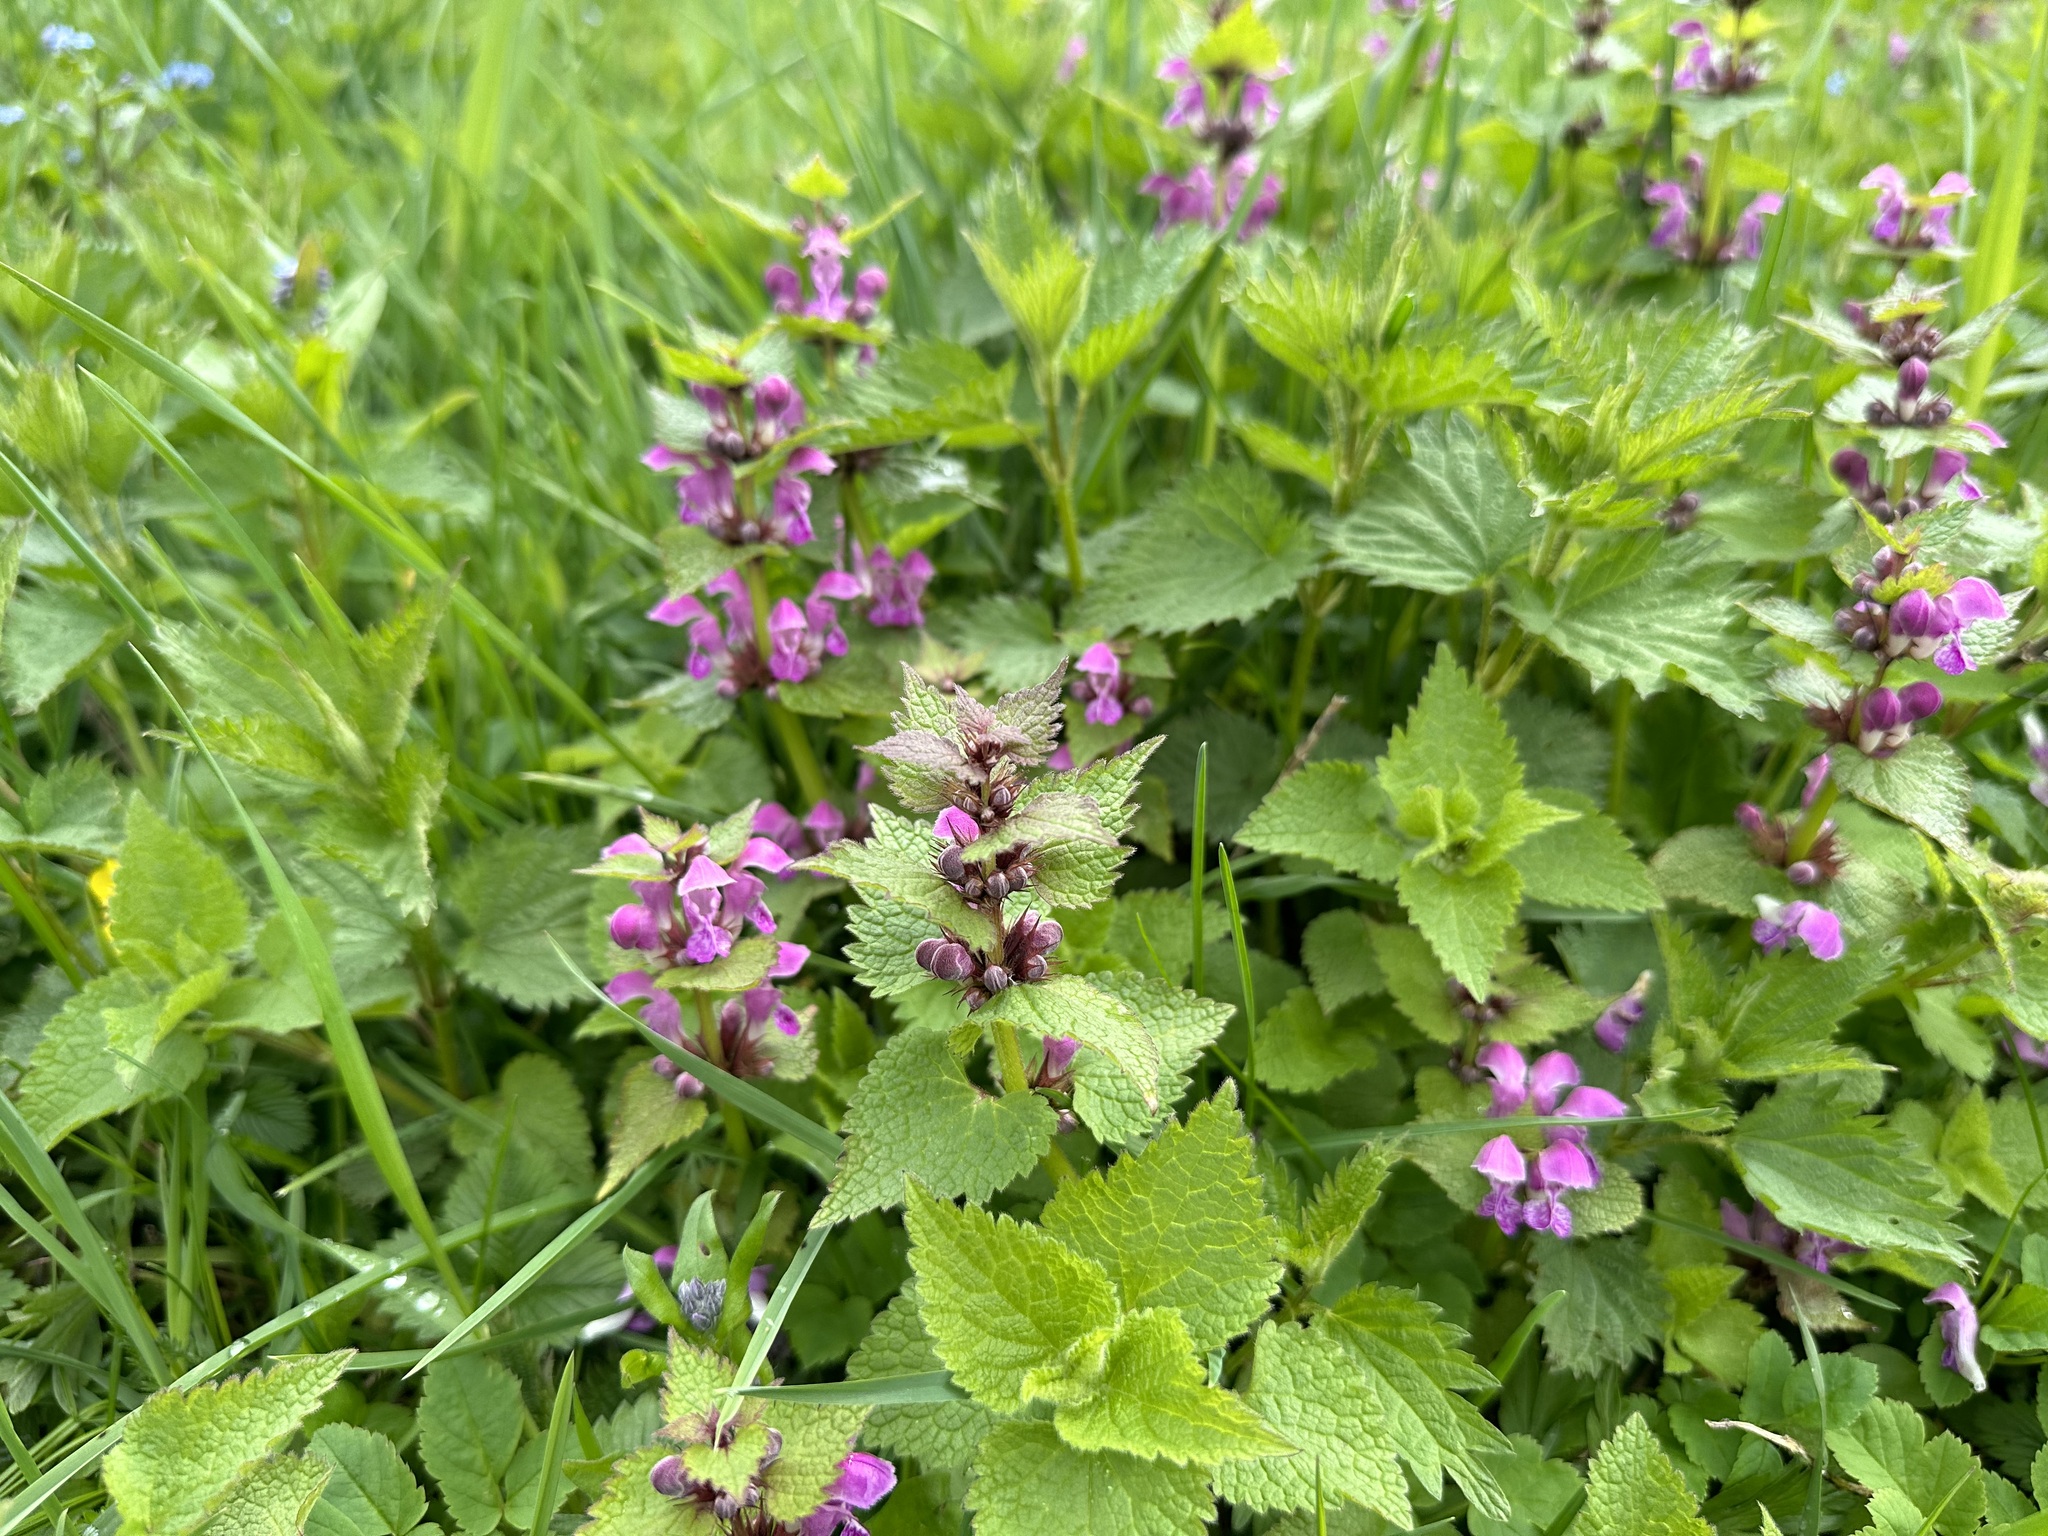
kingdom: Plantae
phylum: Tracheophyta
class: Magnoliopsida
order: Lamiales
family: Lamiaceae
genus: Lamium
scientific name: Lamium maculatum
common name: Spotted dead-nettle
